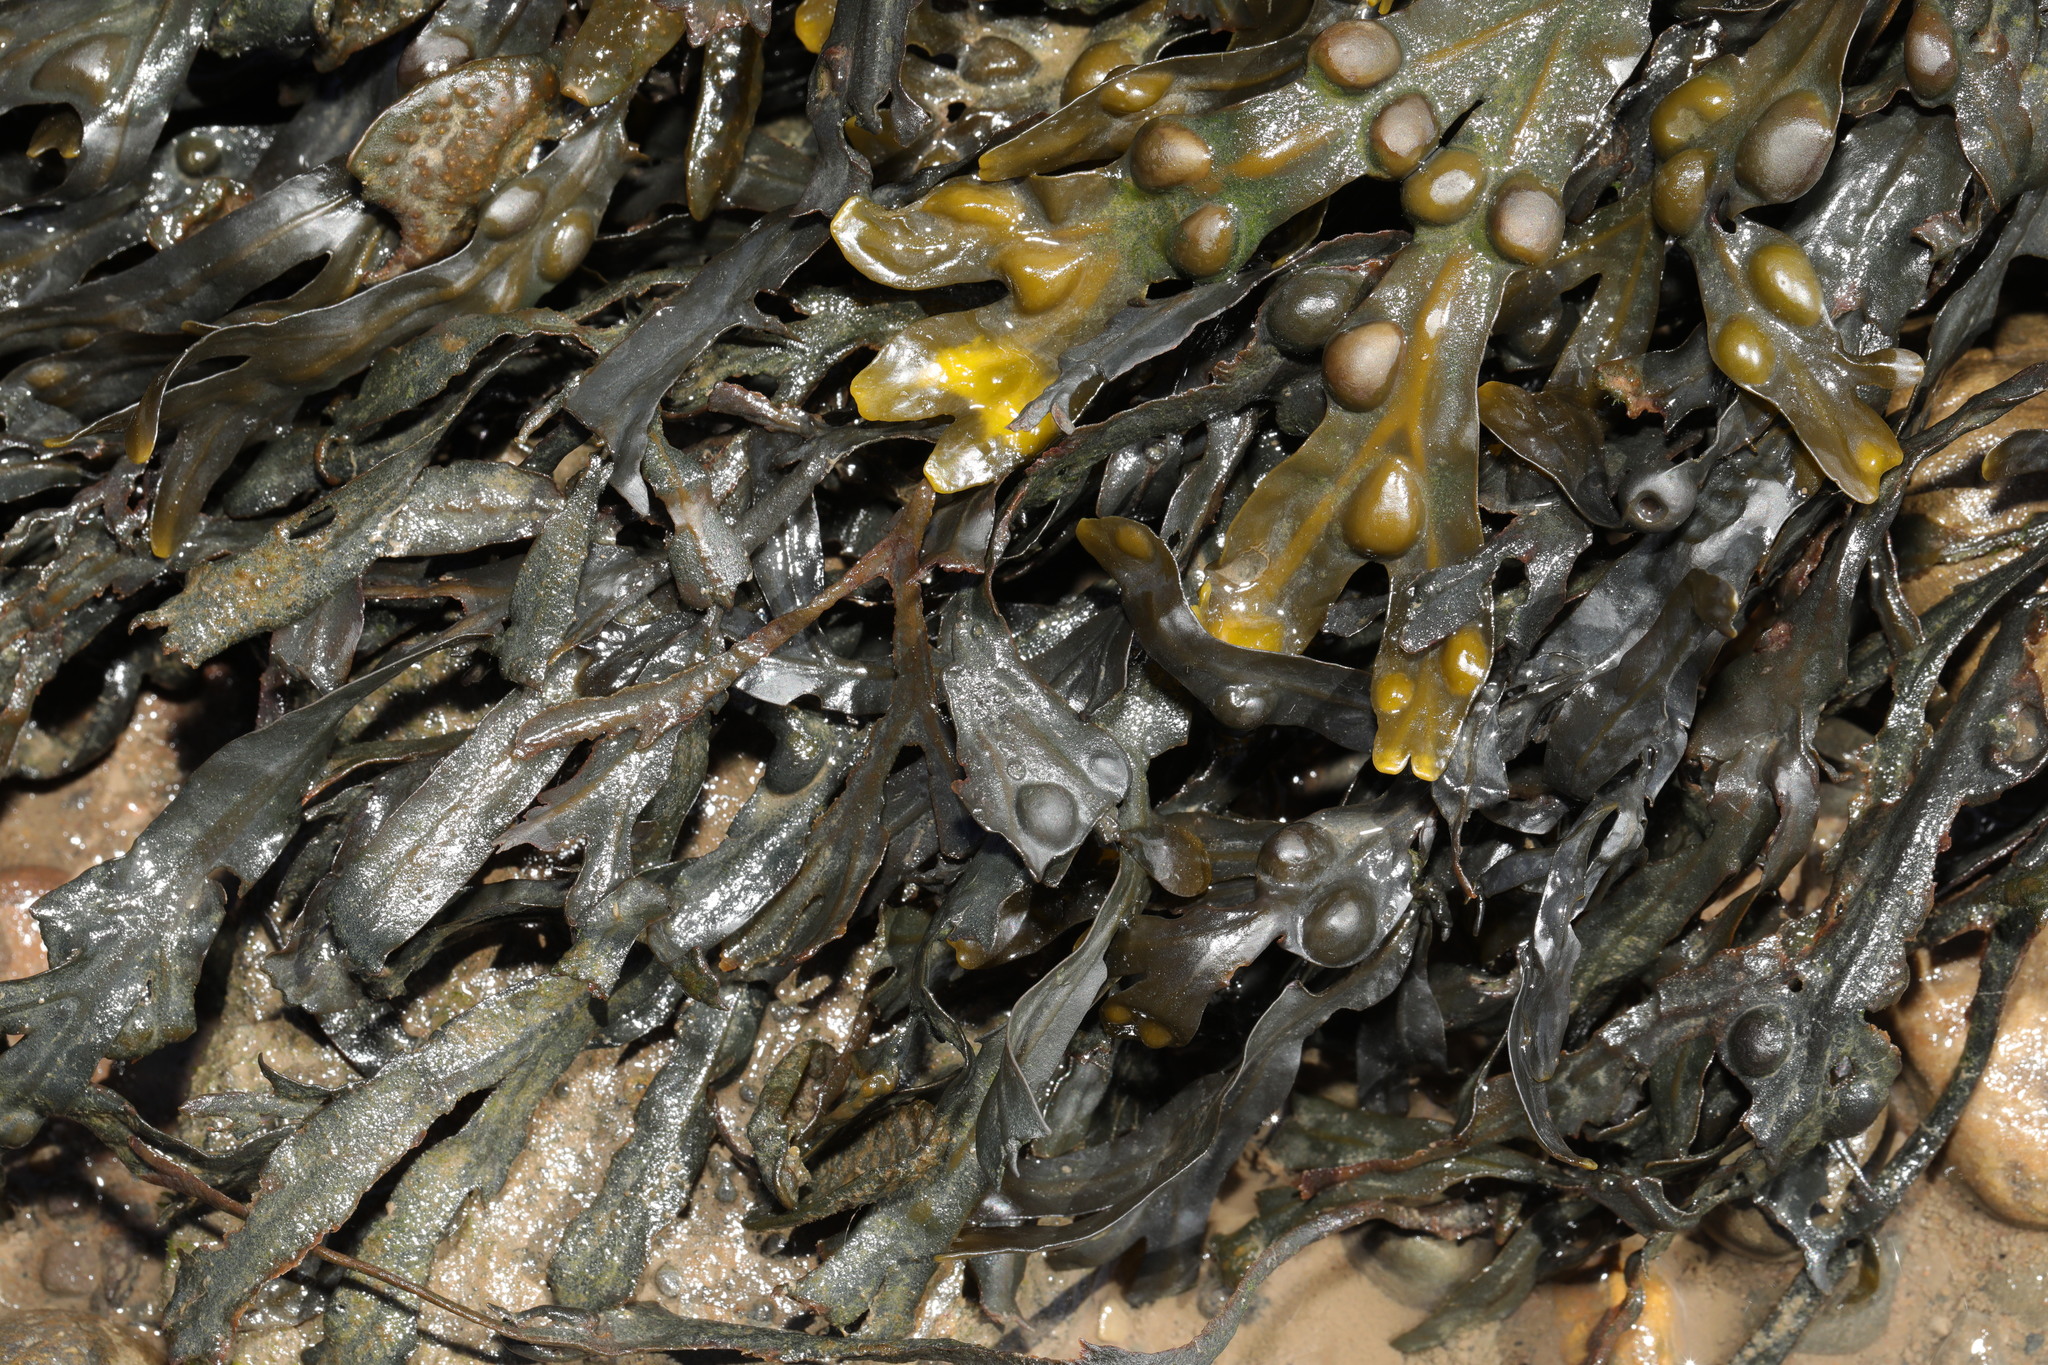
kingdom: Chromista
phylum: Ochrophyta
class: Phaeophyceae
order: Fucales
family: Fucaceae
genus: Fucus
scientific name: Fucus vesiculosus
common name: Bladder wrack
